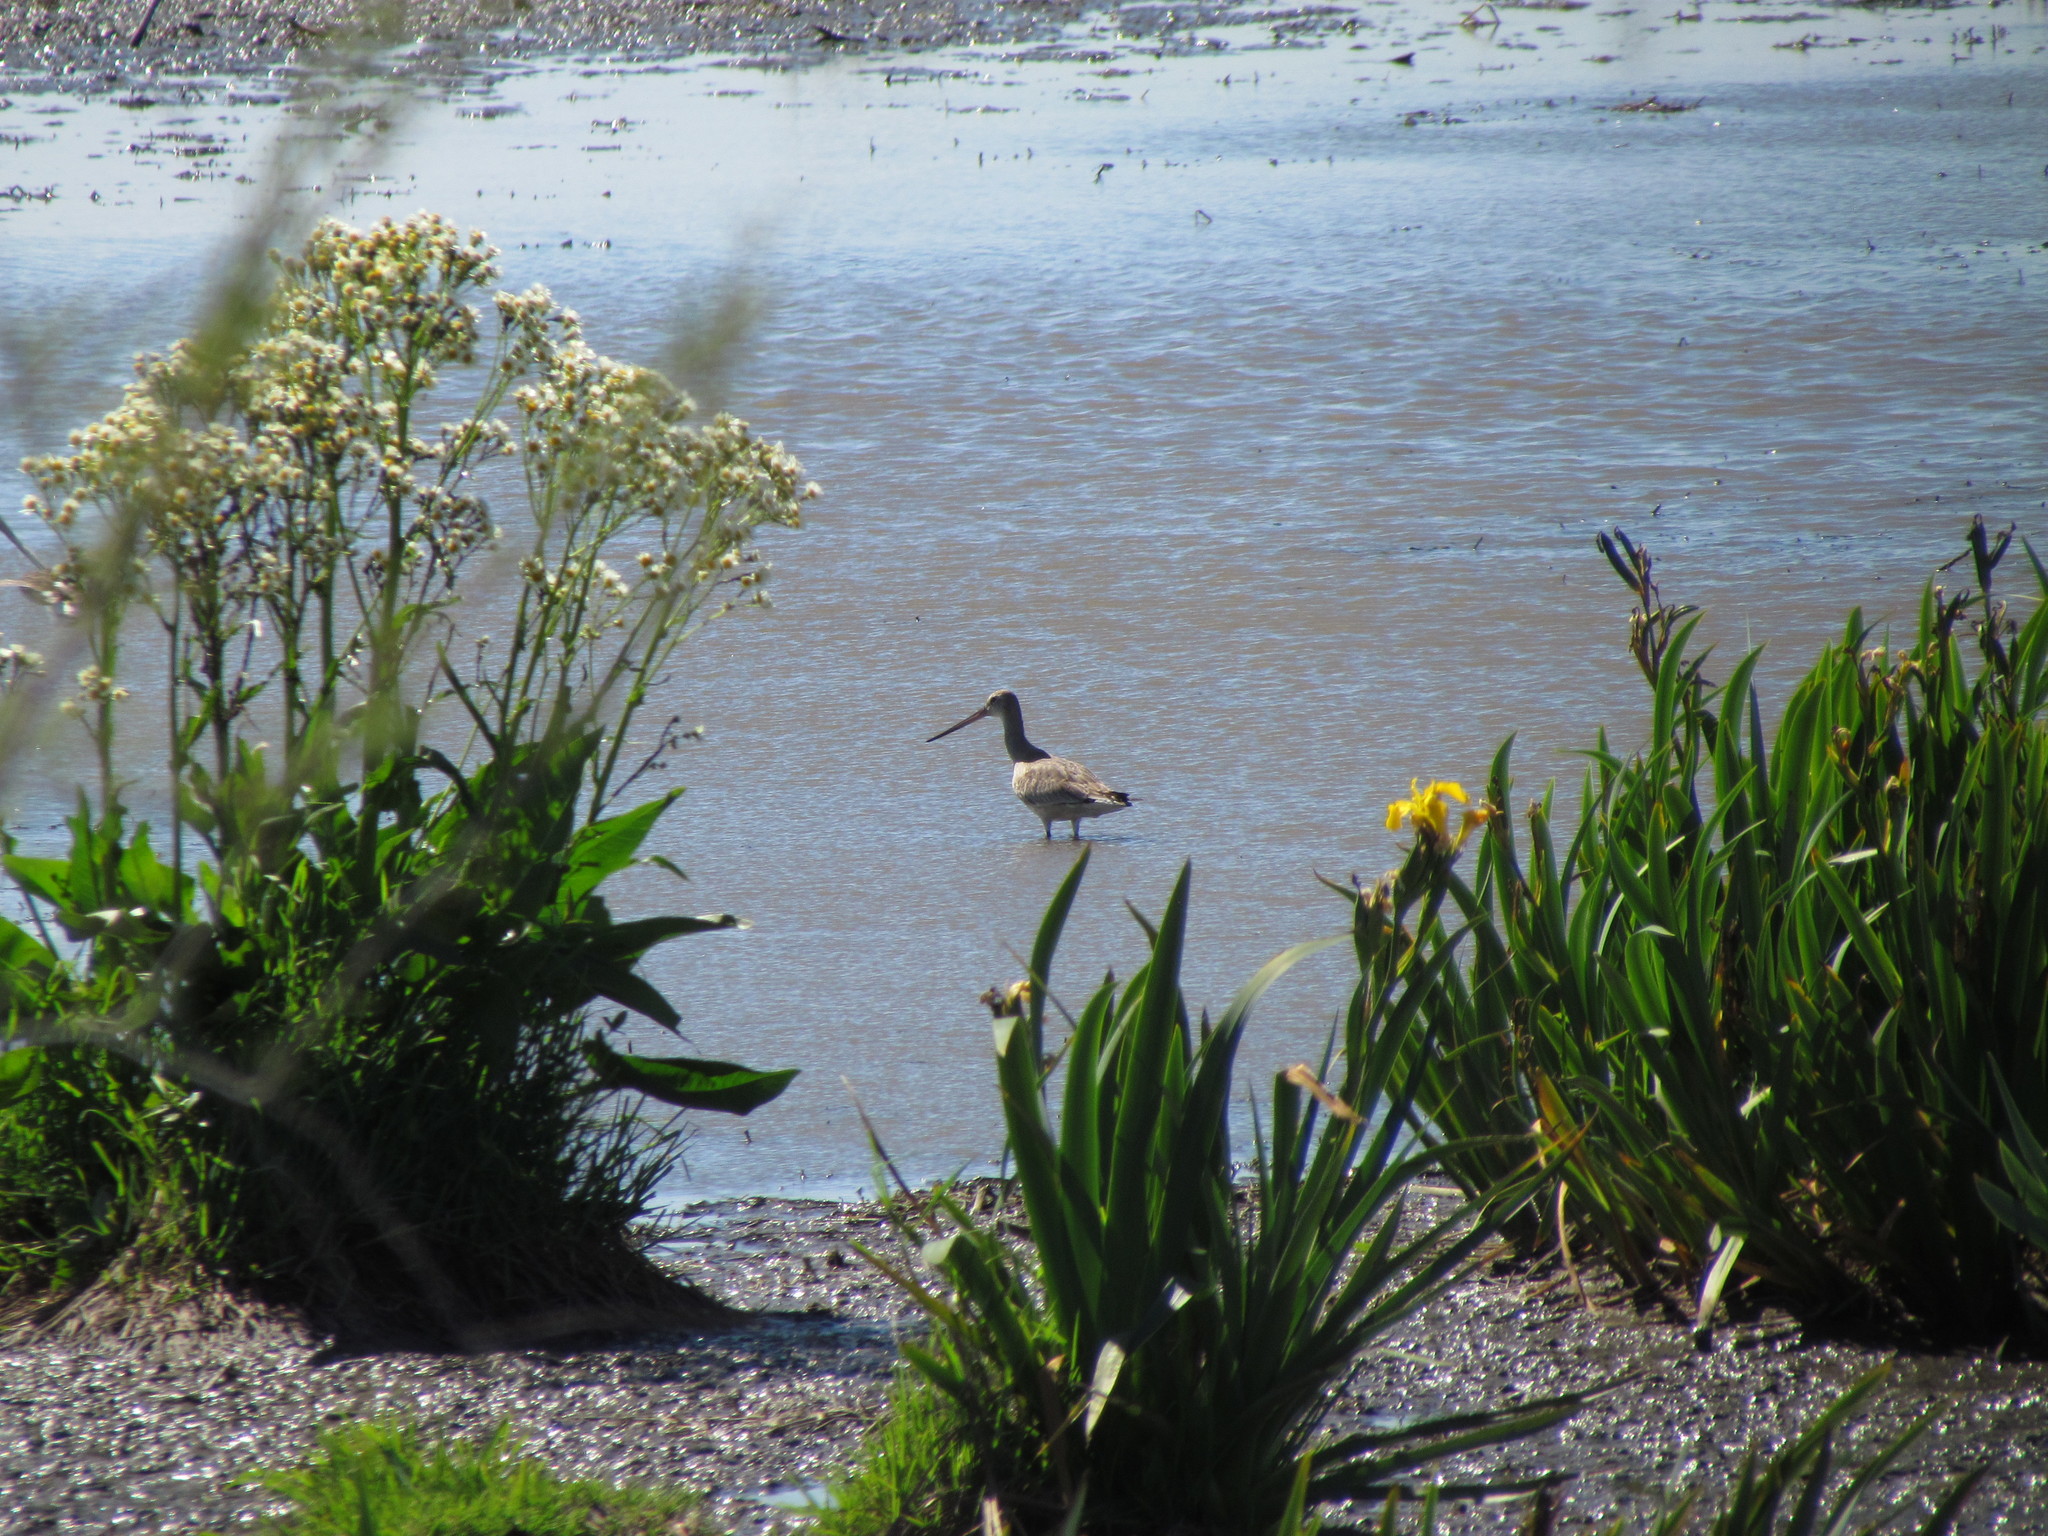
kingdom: Animalia
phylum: Chordata
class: Aves
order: Charadriiformes
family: Scolopacidae
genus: Limosa
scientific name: Limosa haemastica
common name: Hudsonian godwit
